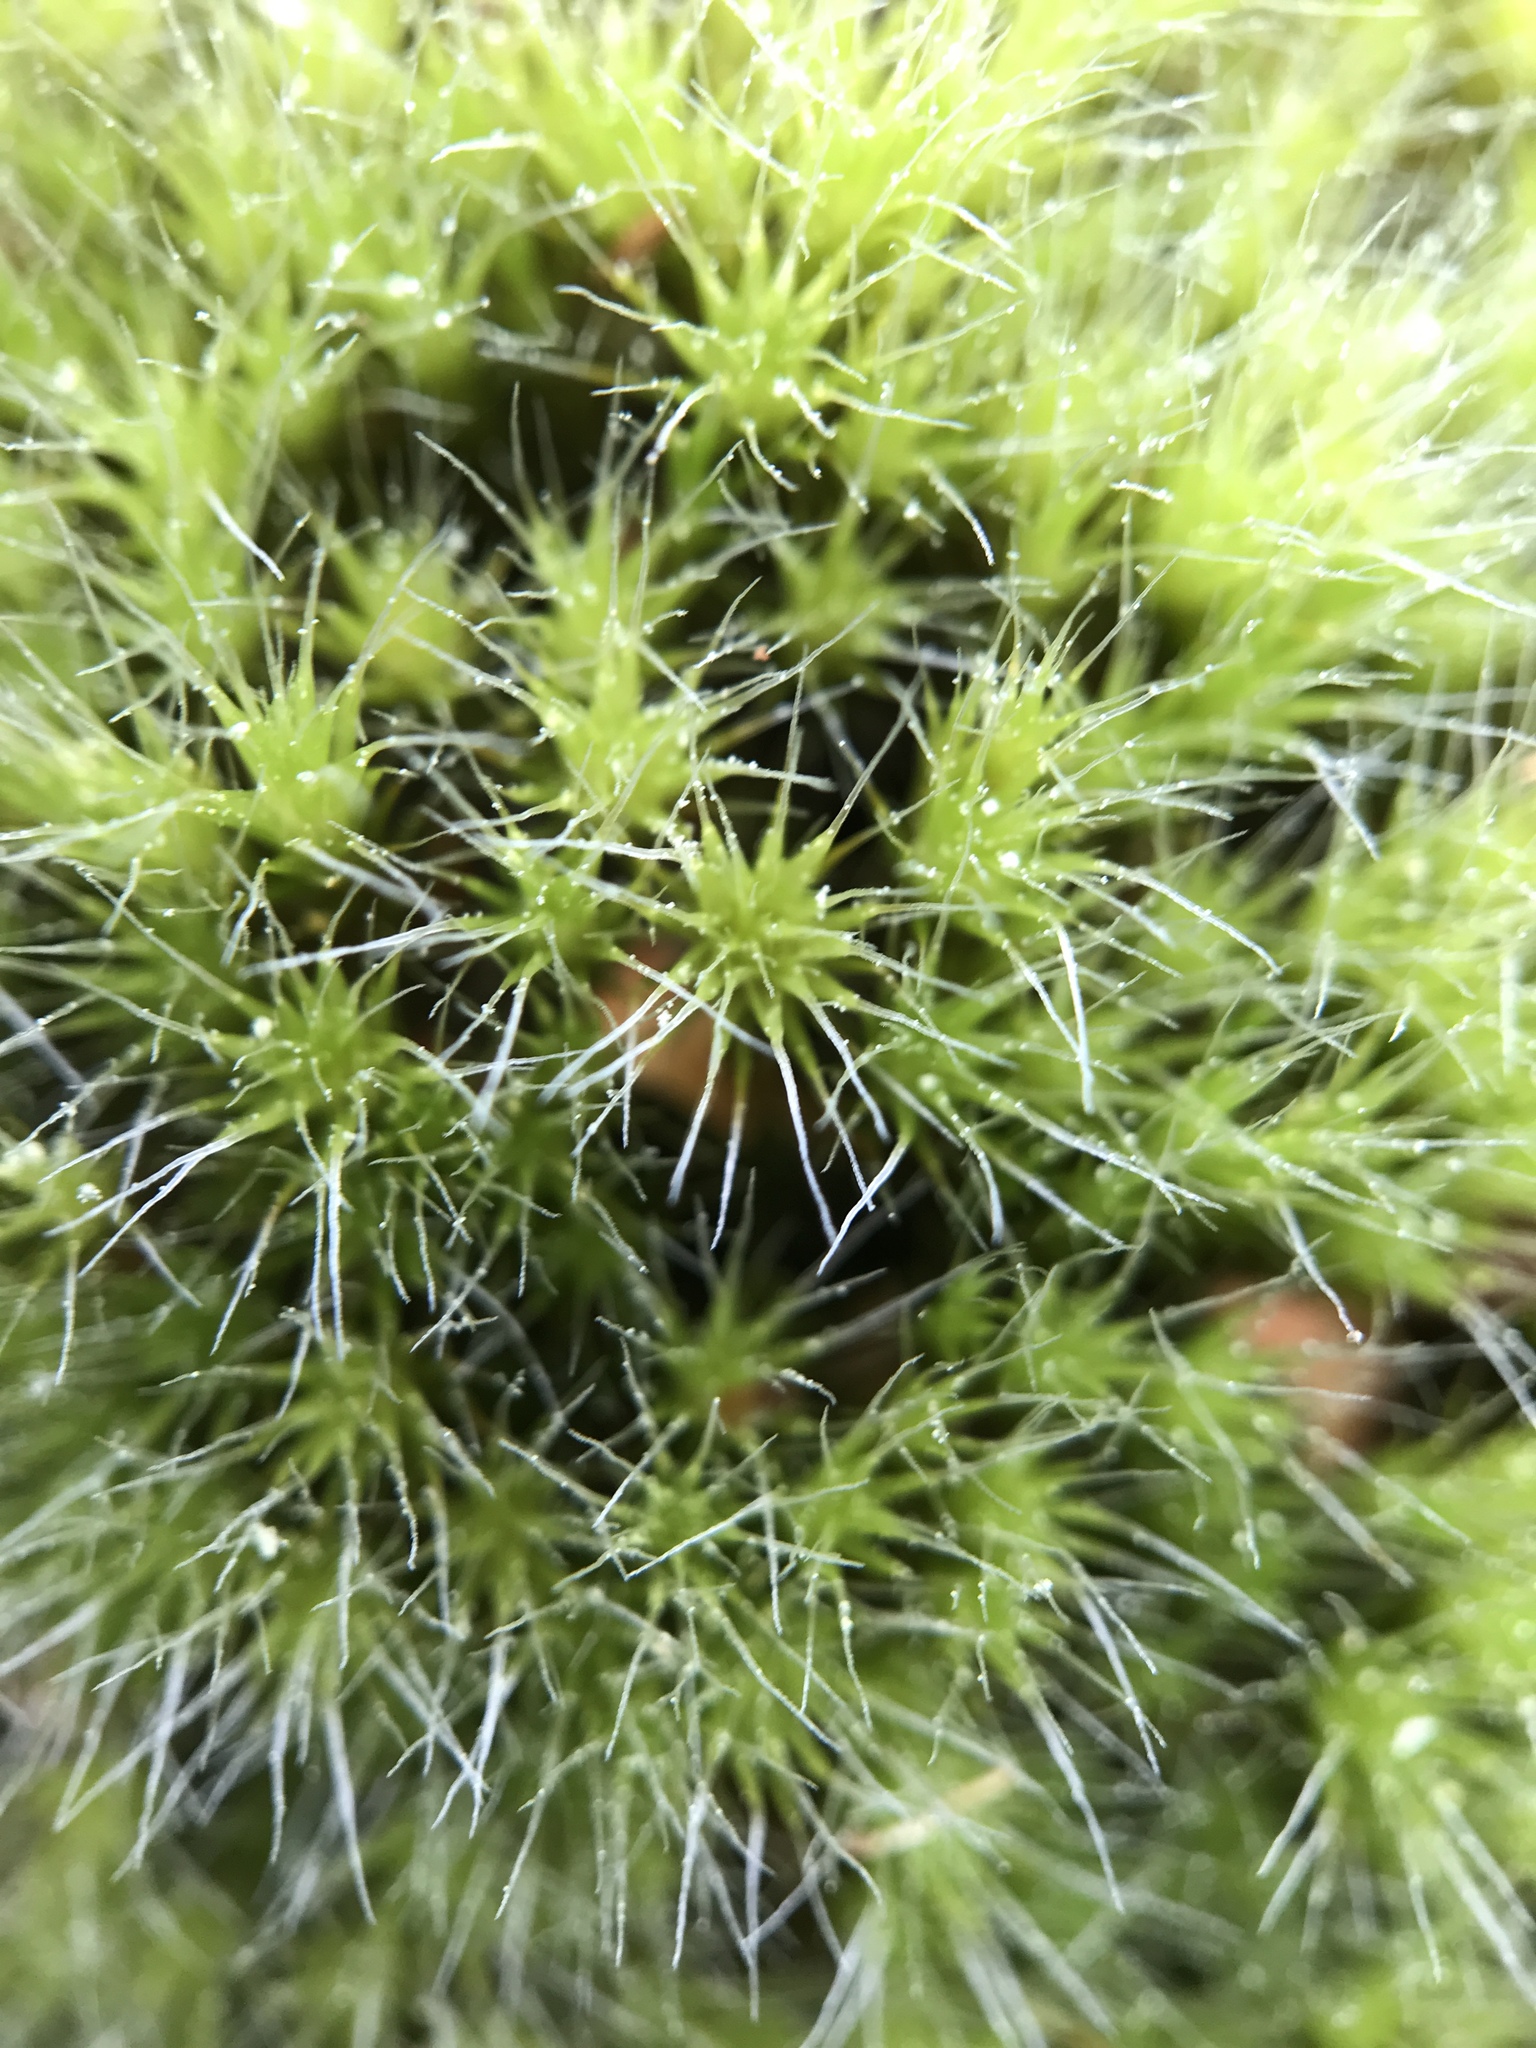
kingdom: Plantae
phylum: Bryophyta
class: Bryopsida
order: Dicranales
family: Leucobryaceae
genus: Campylopus
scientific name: Campylopus introflexus
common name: Heath star moss
